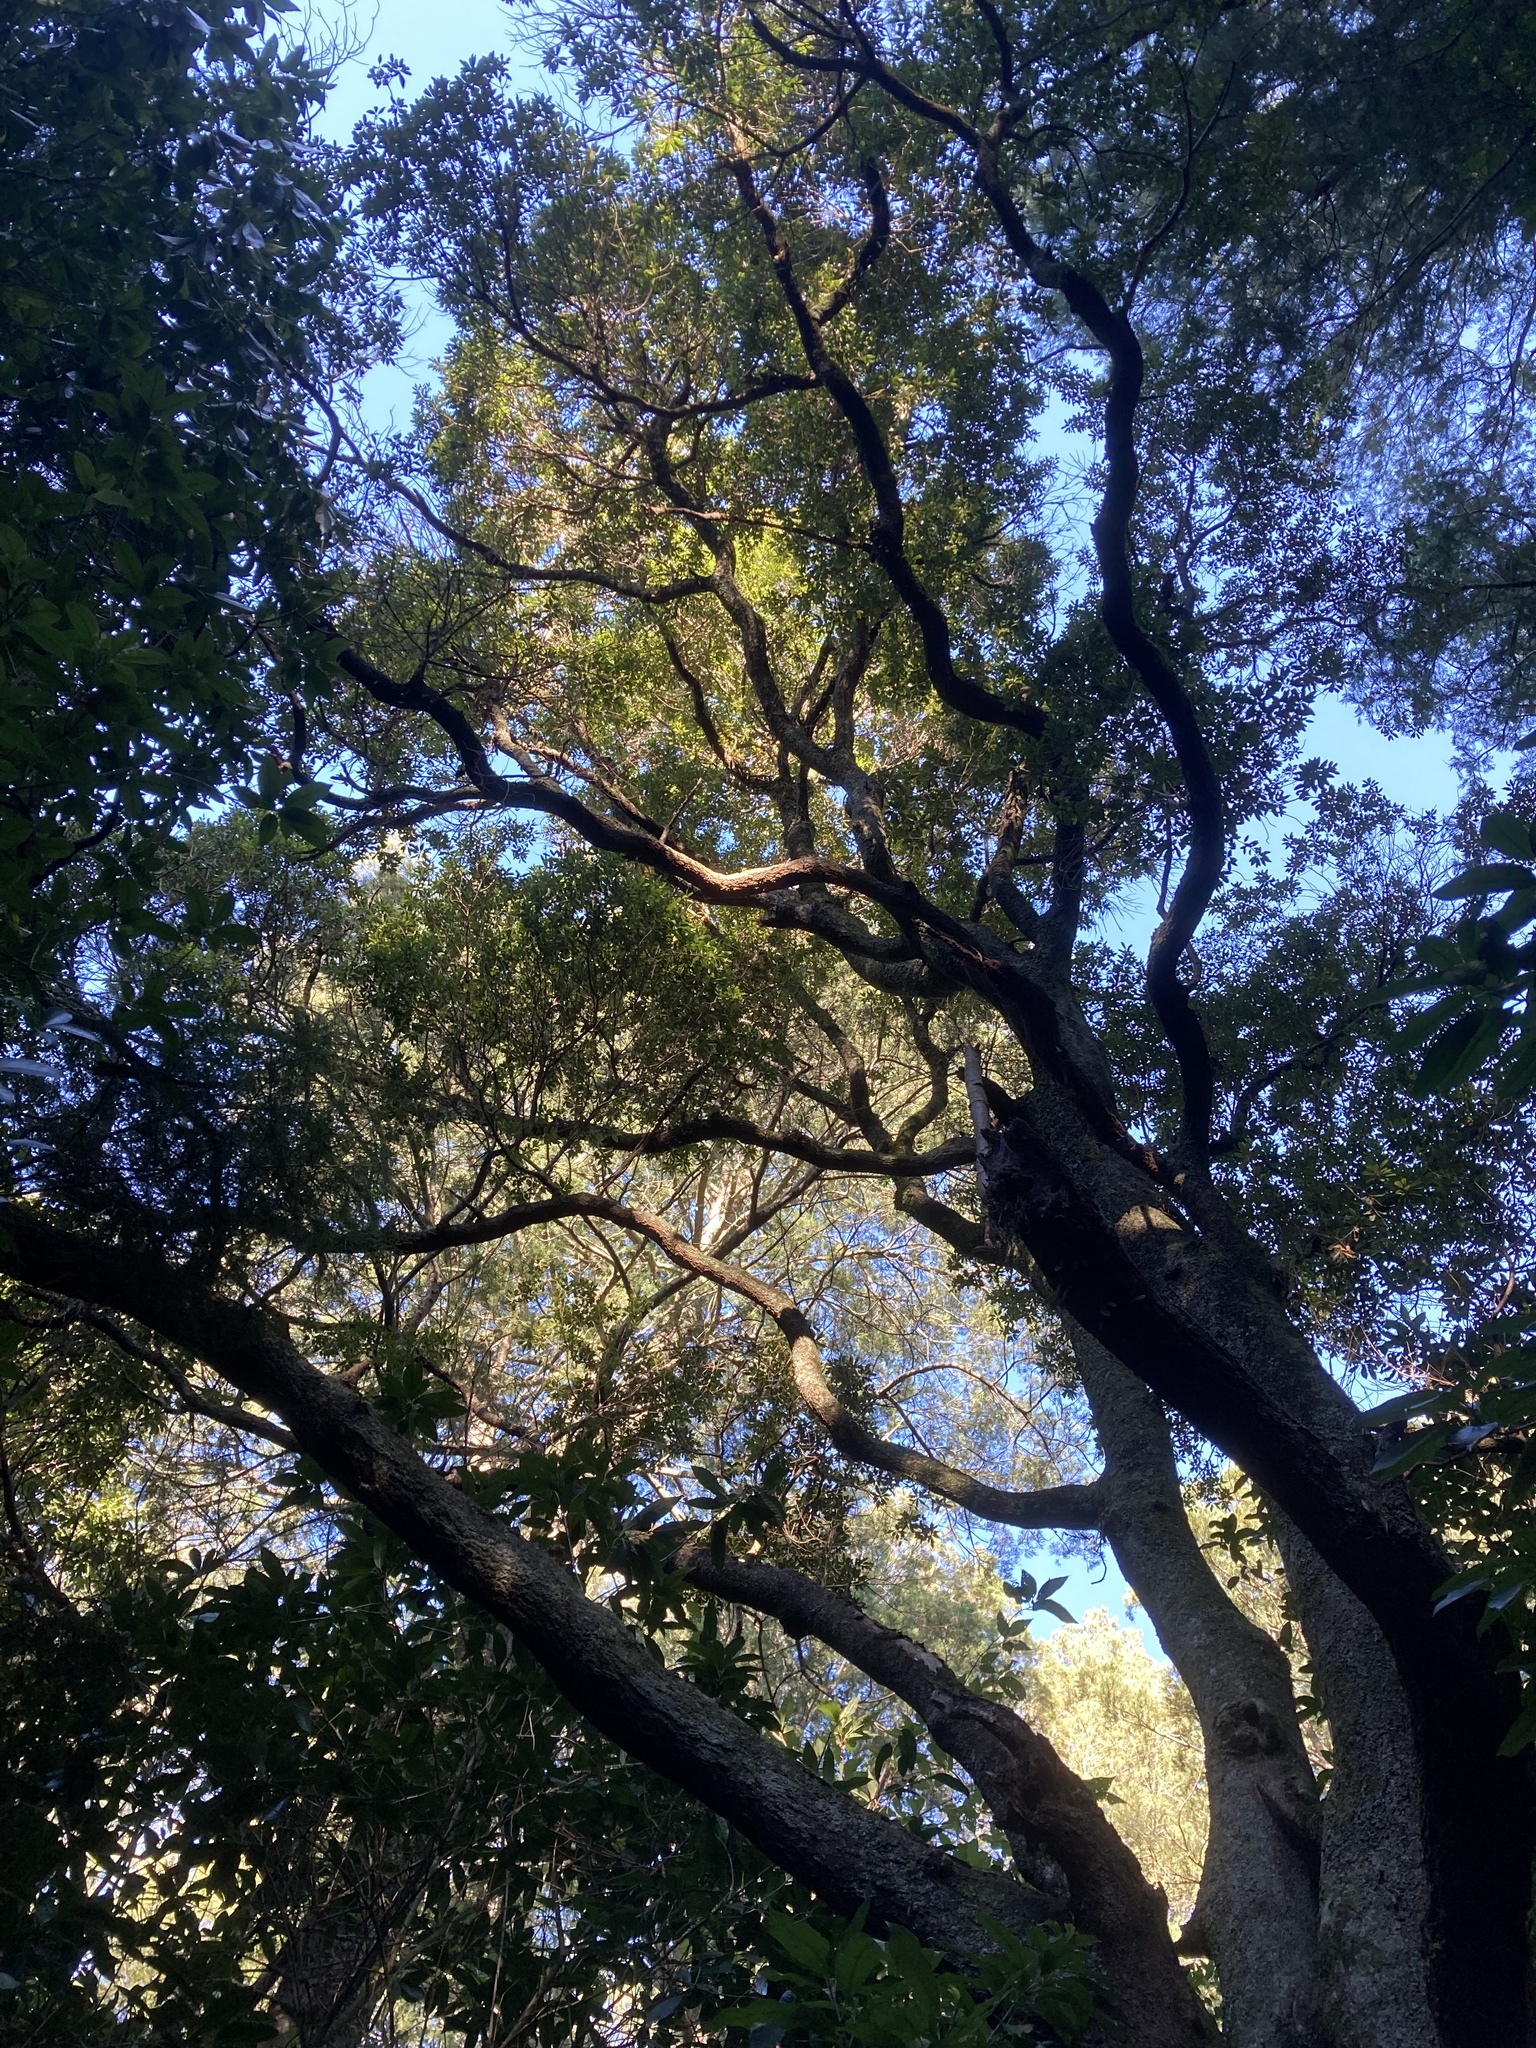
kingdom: Plantae
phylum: Tracheophyta
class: Magnoliopsida
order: Oxalidales
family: Elaeocarpaceae
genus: Elaeocarpus
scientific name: Elaeocarpus hookerianus
